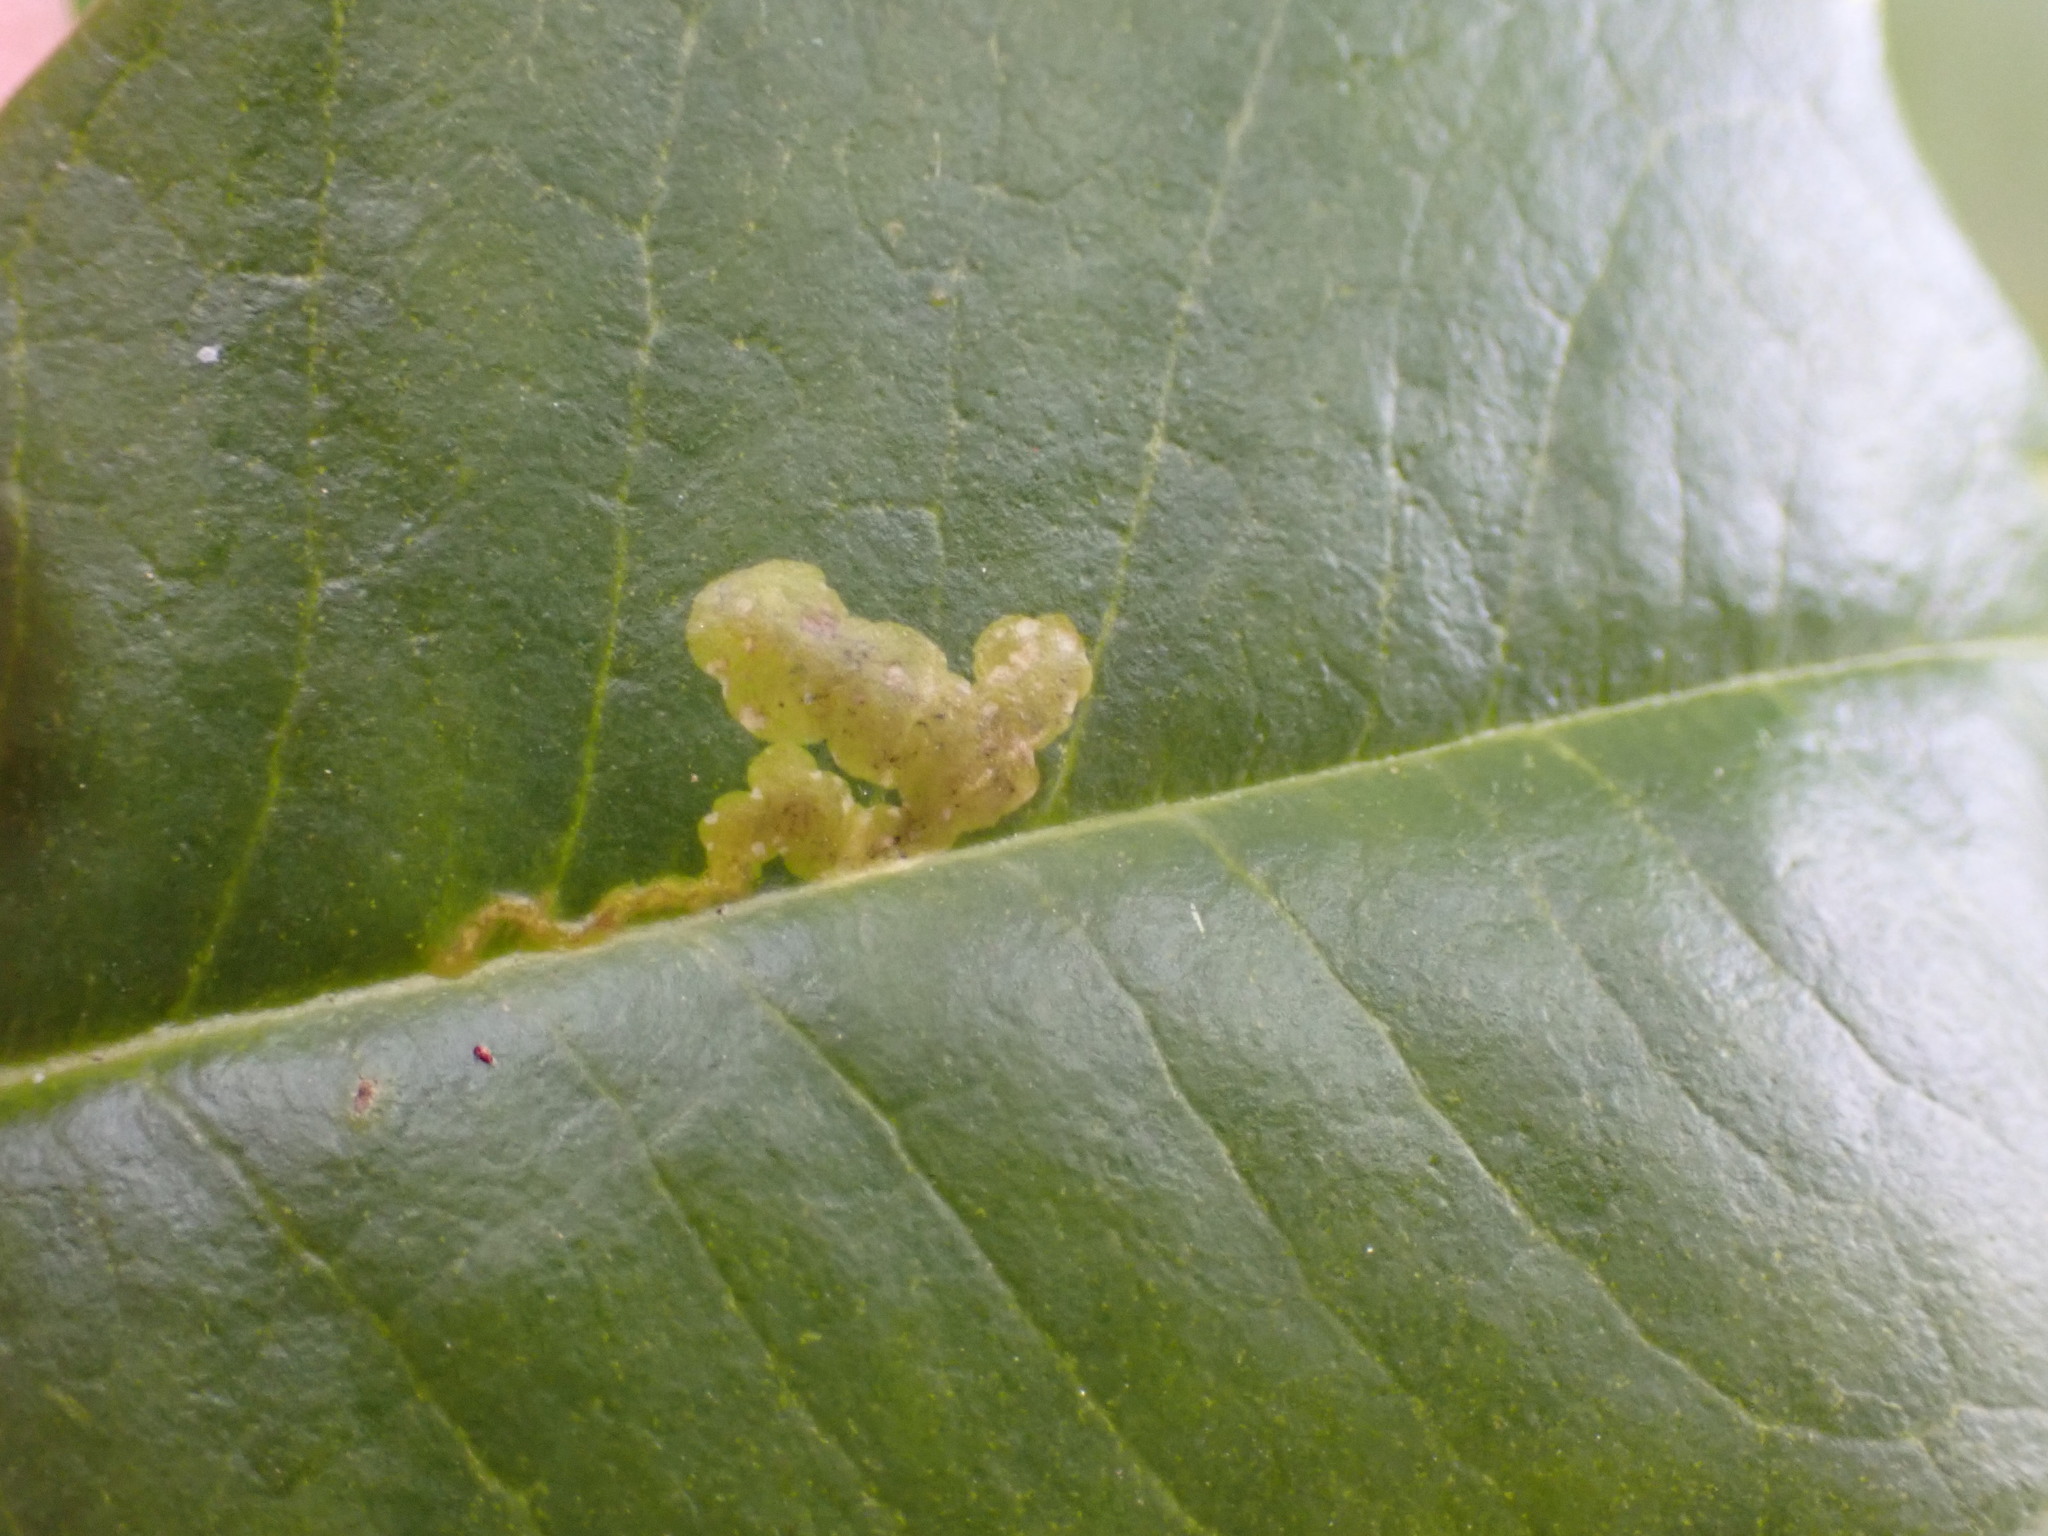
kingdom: Animalia
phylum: Arthropoda
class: Insecta
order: Diptera
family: Agromyzidae
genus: Phytomyza
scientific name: Phytomyza ilicicola
